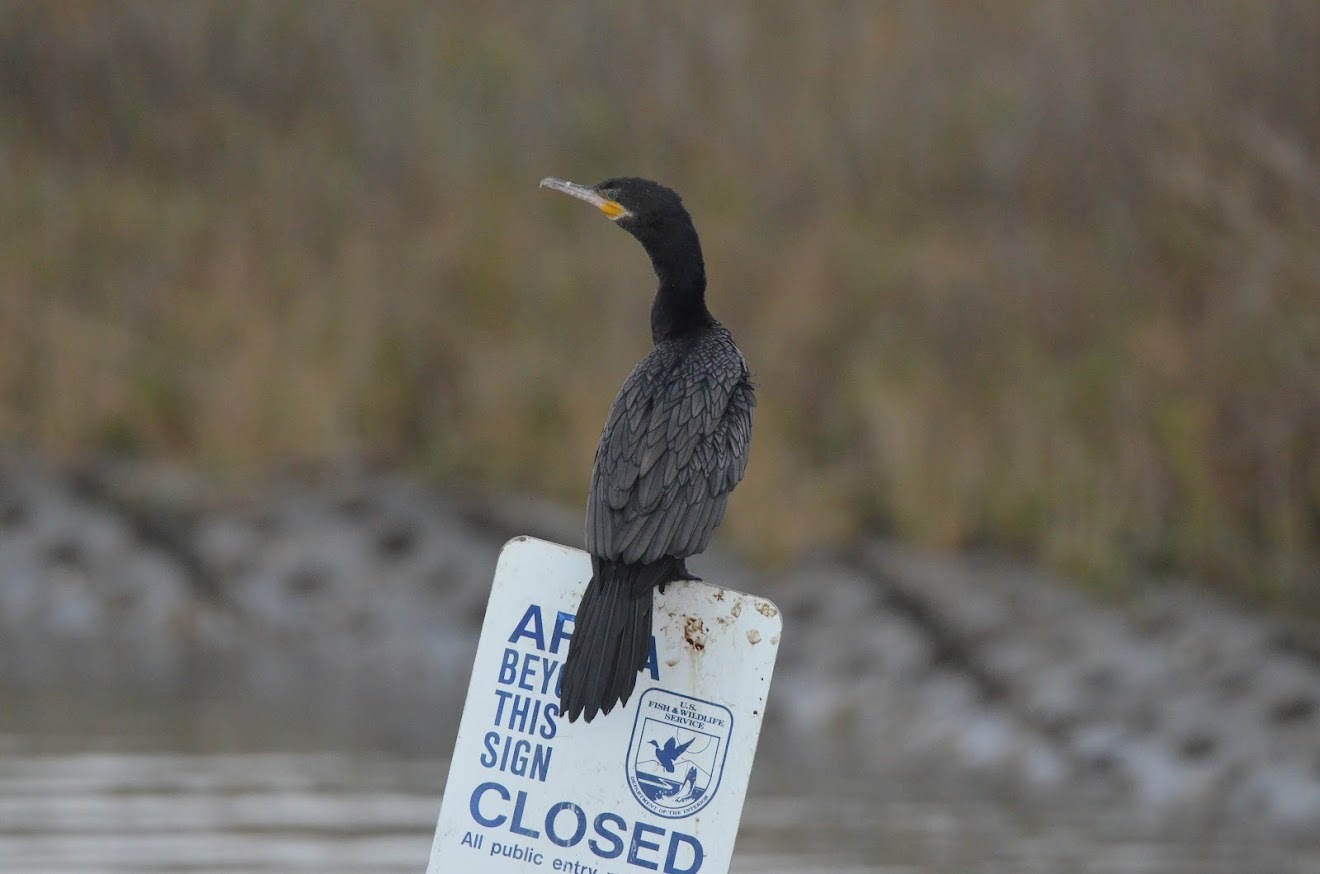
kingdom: Animalia
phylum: Chordata
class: Aves
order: Suliformes
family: Phalacrocoracidae
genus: Phalacrocorax
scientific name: Phalacrocorax brasilianus
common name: Neotropic cormorant
